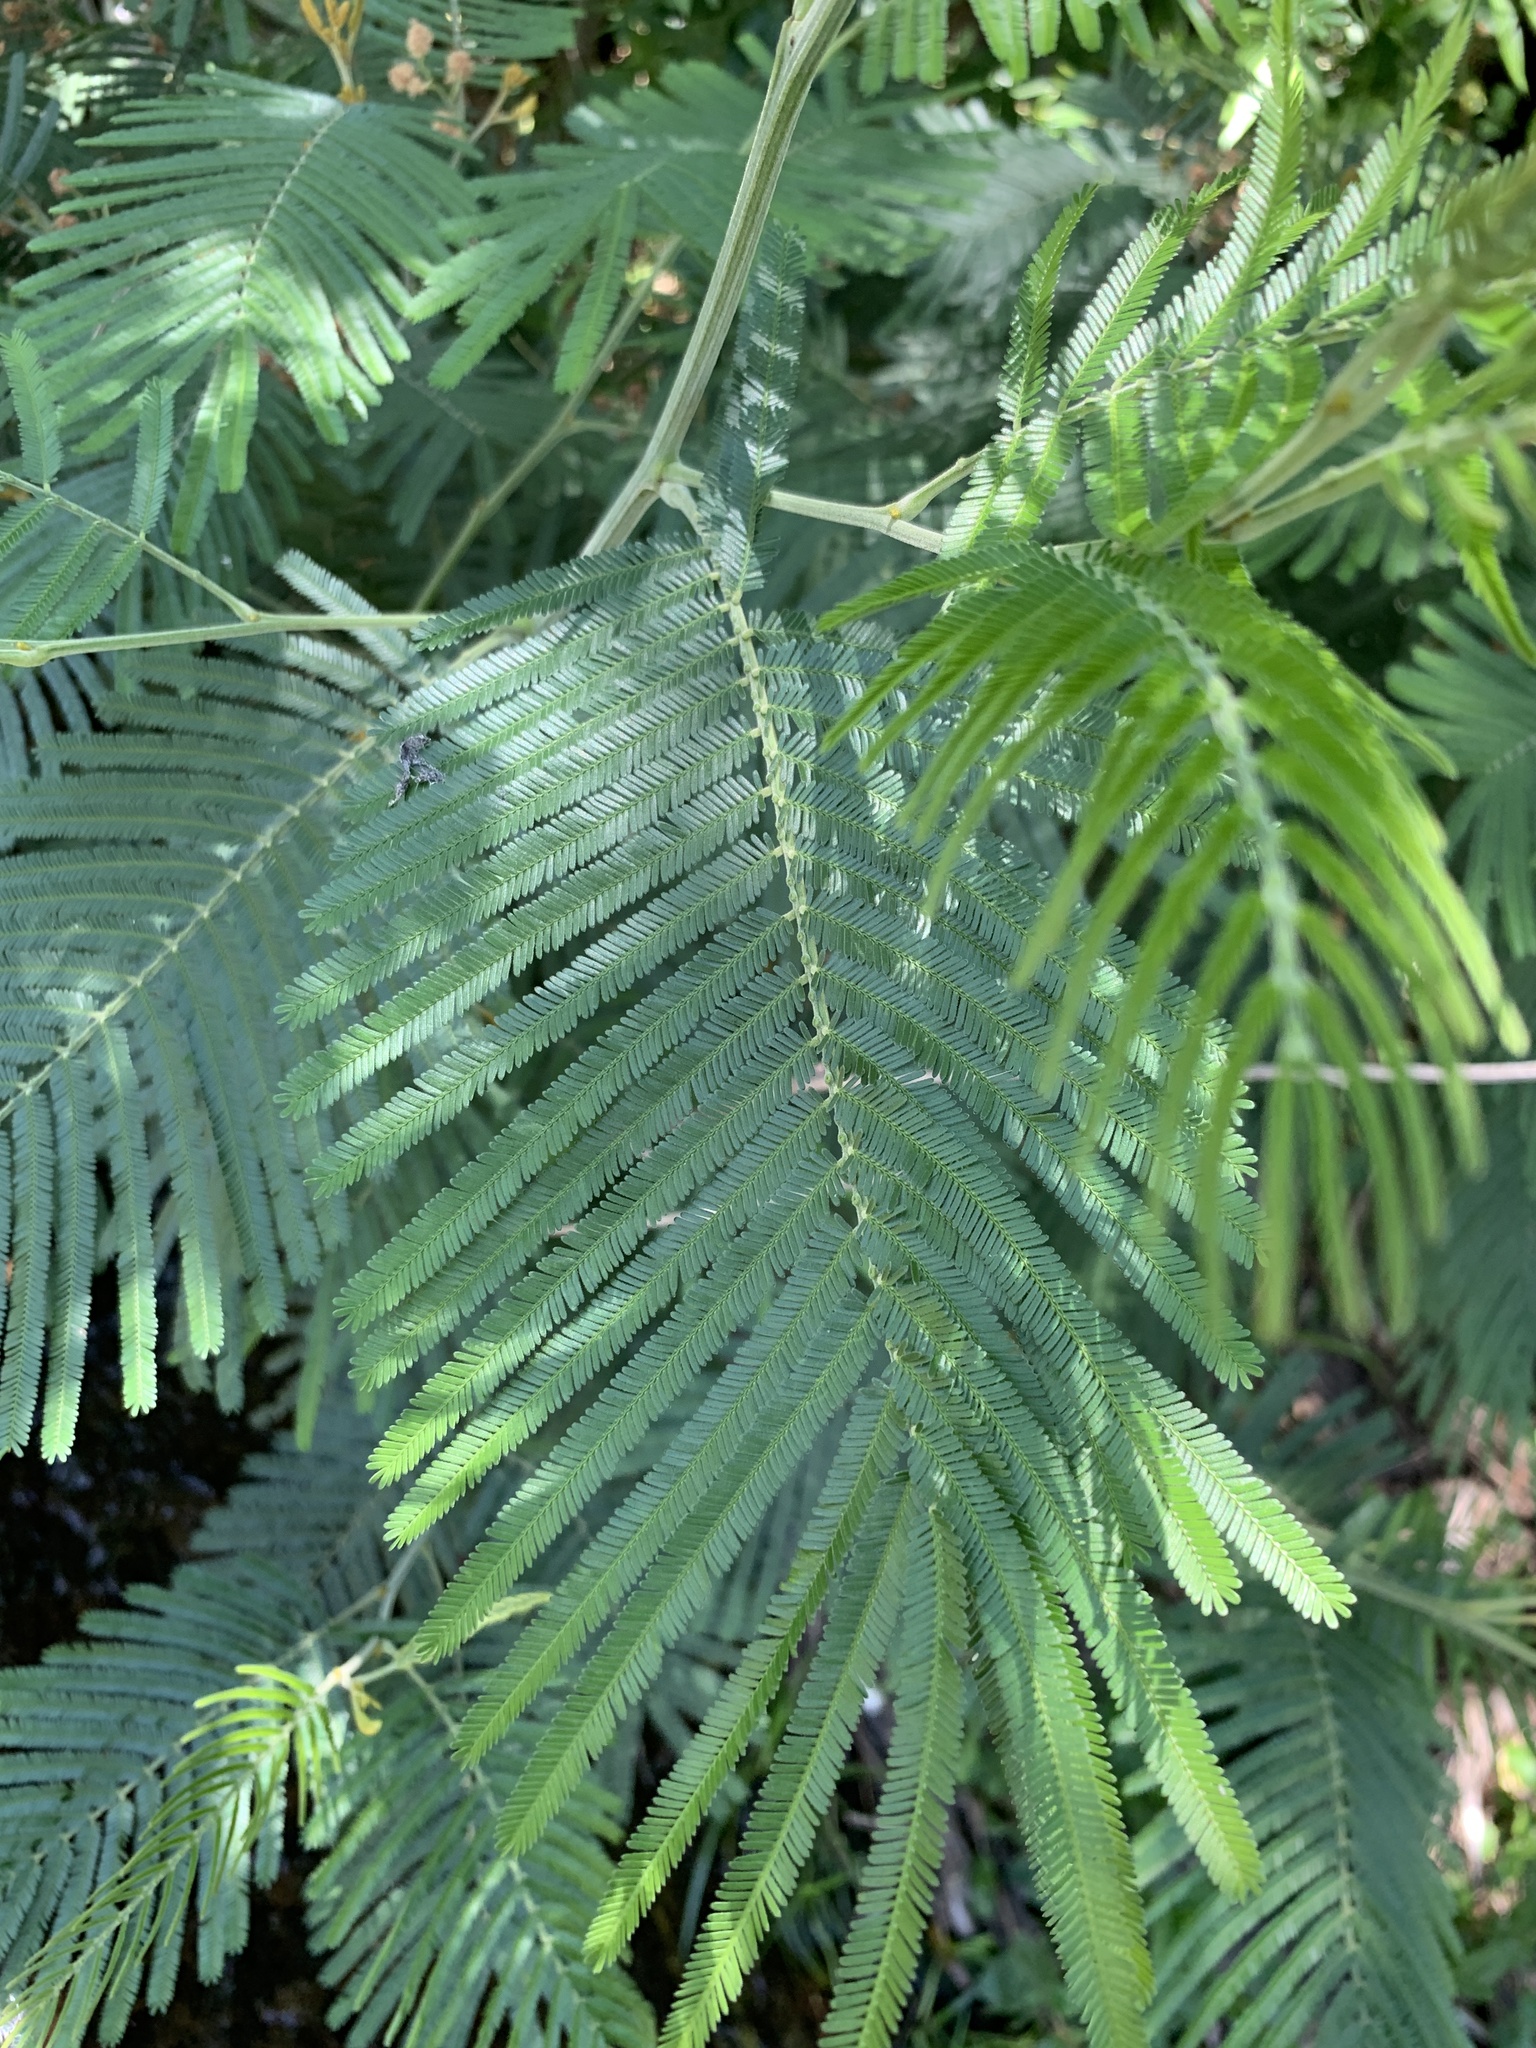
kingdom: Plantae
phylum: Tracheophyta
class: Magnoliopsida
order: Fabales
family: Fabaceae
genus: Acacia
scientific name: Acacia mearnsii
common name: Black wattle
